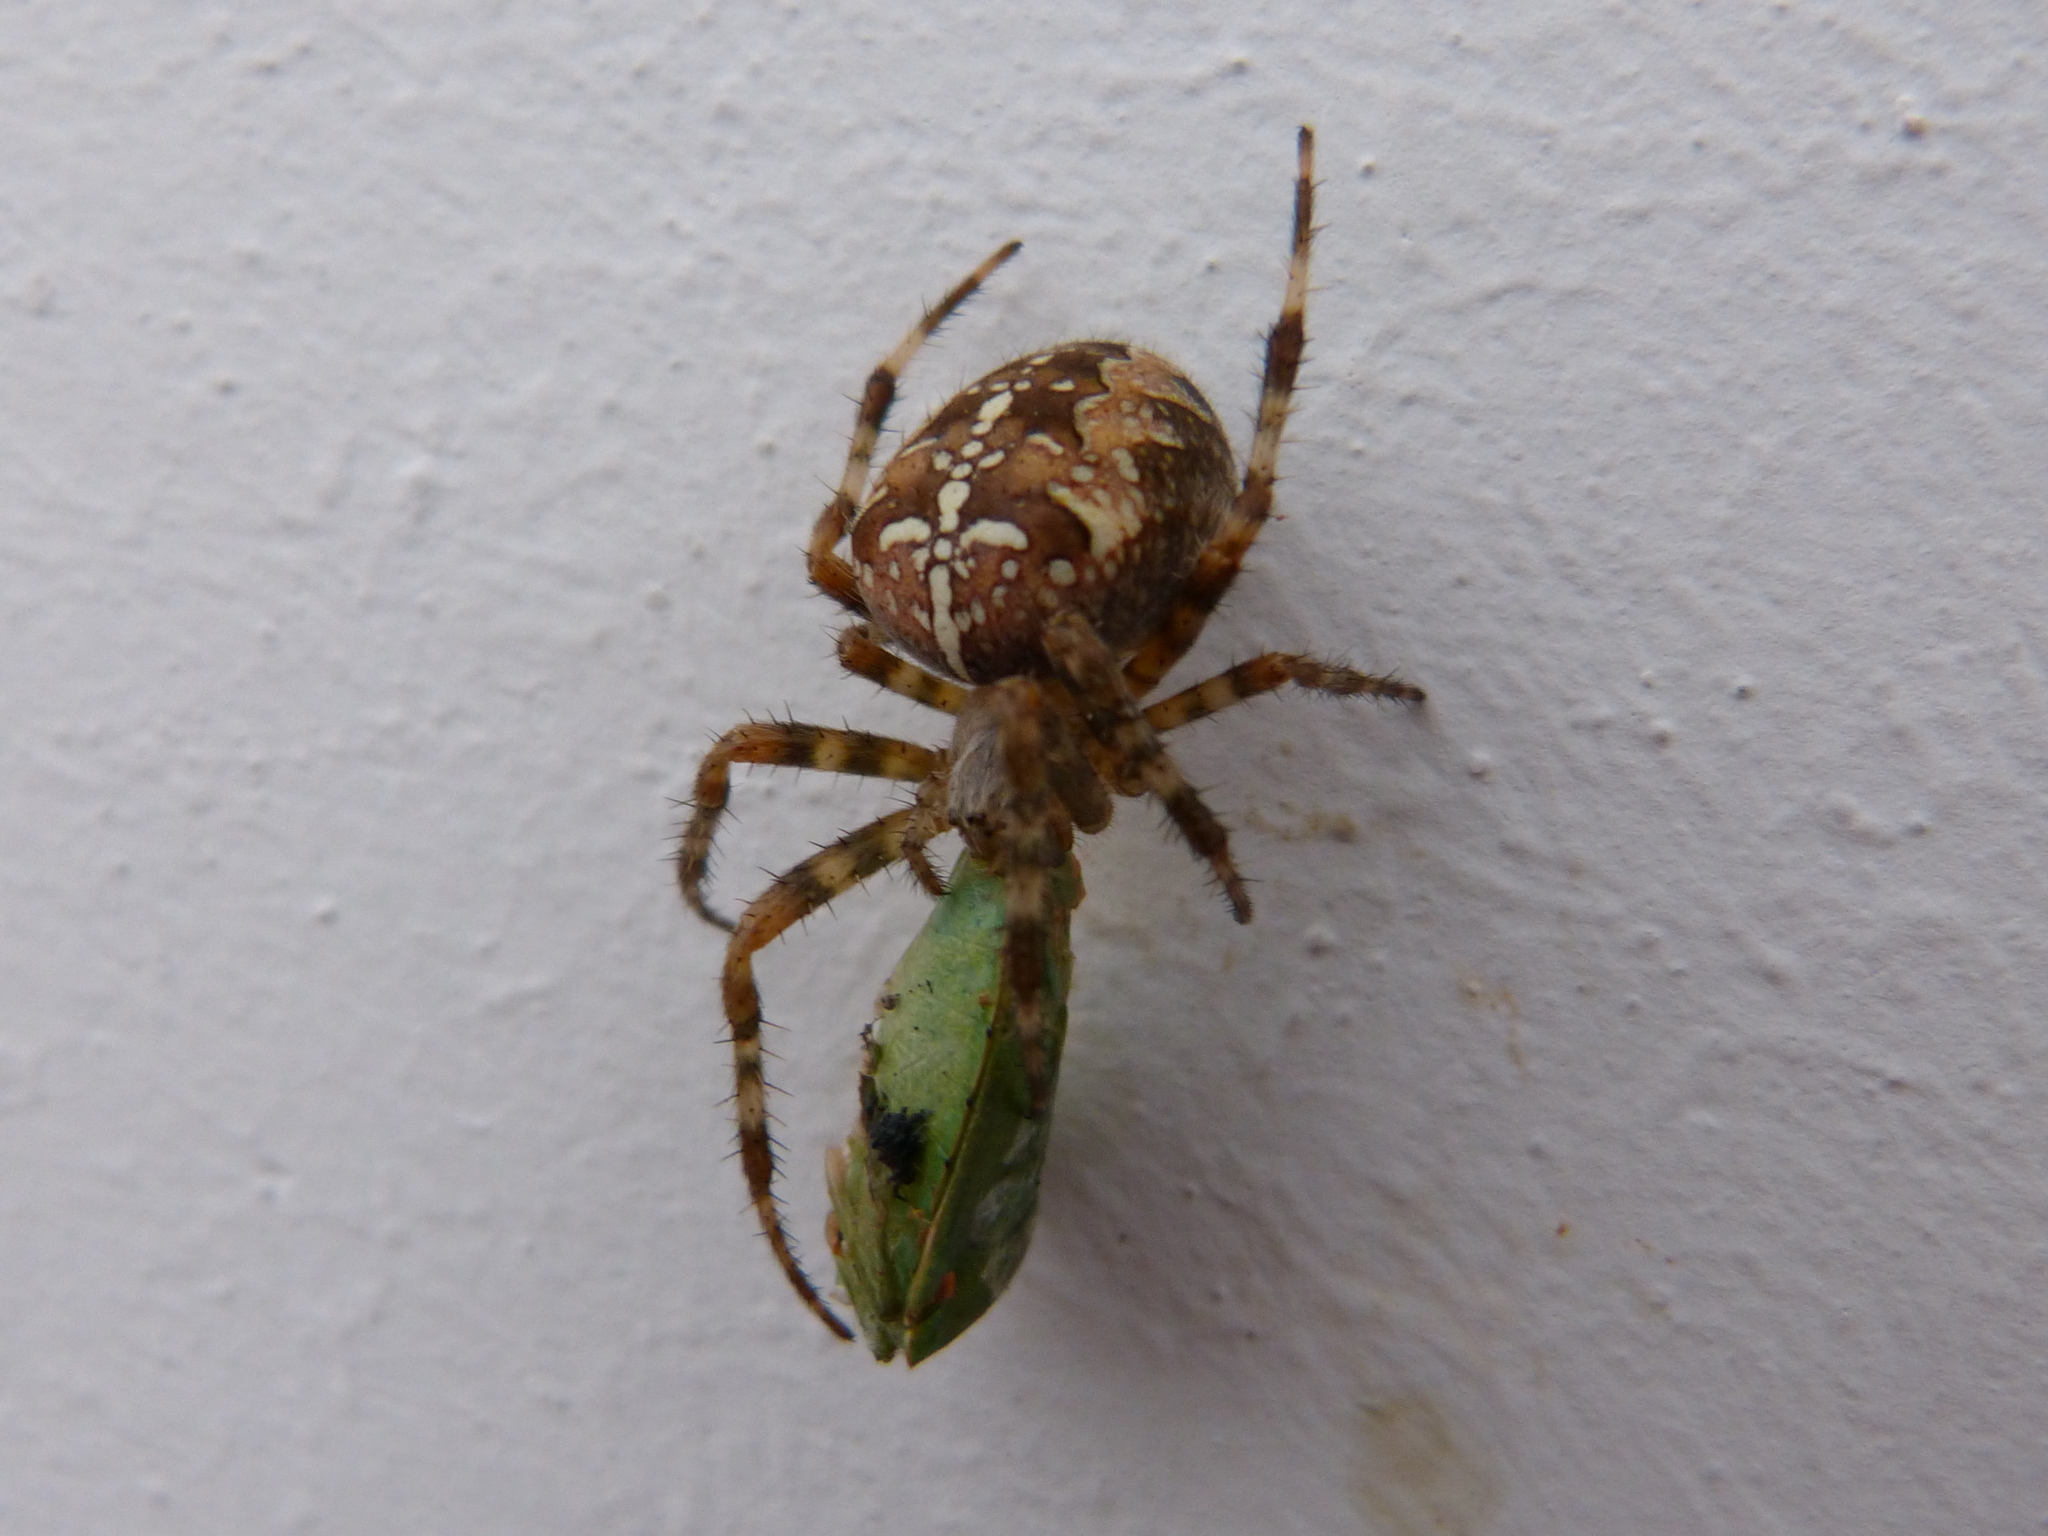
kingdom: Animalia
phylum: Arthropoda
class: Arachnida
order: Araneae
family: Araneidae
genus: Araneus
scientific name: Araneus diadematus
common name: Cross orbweaver
